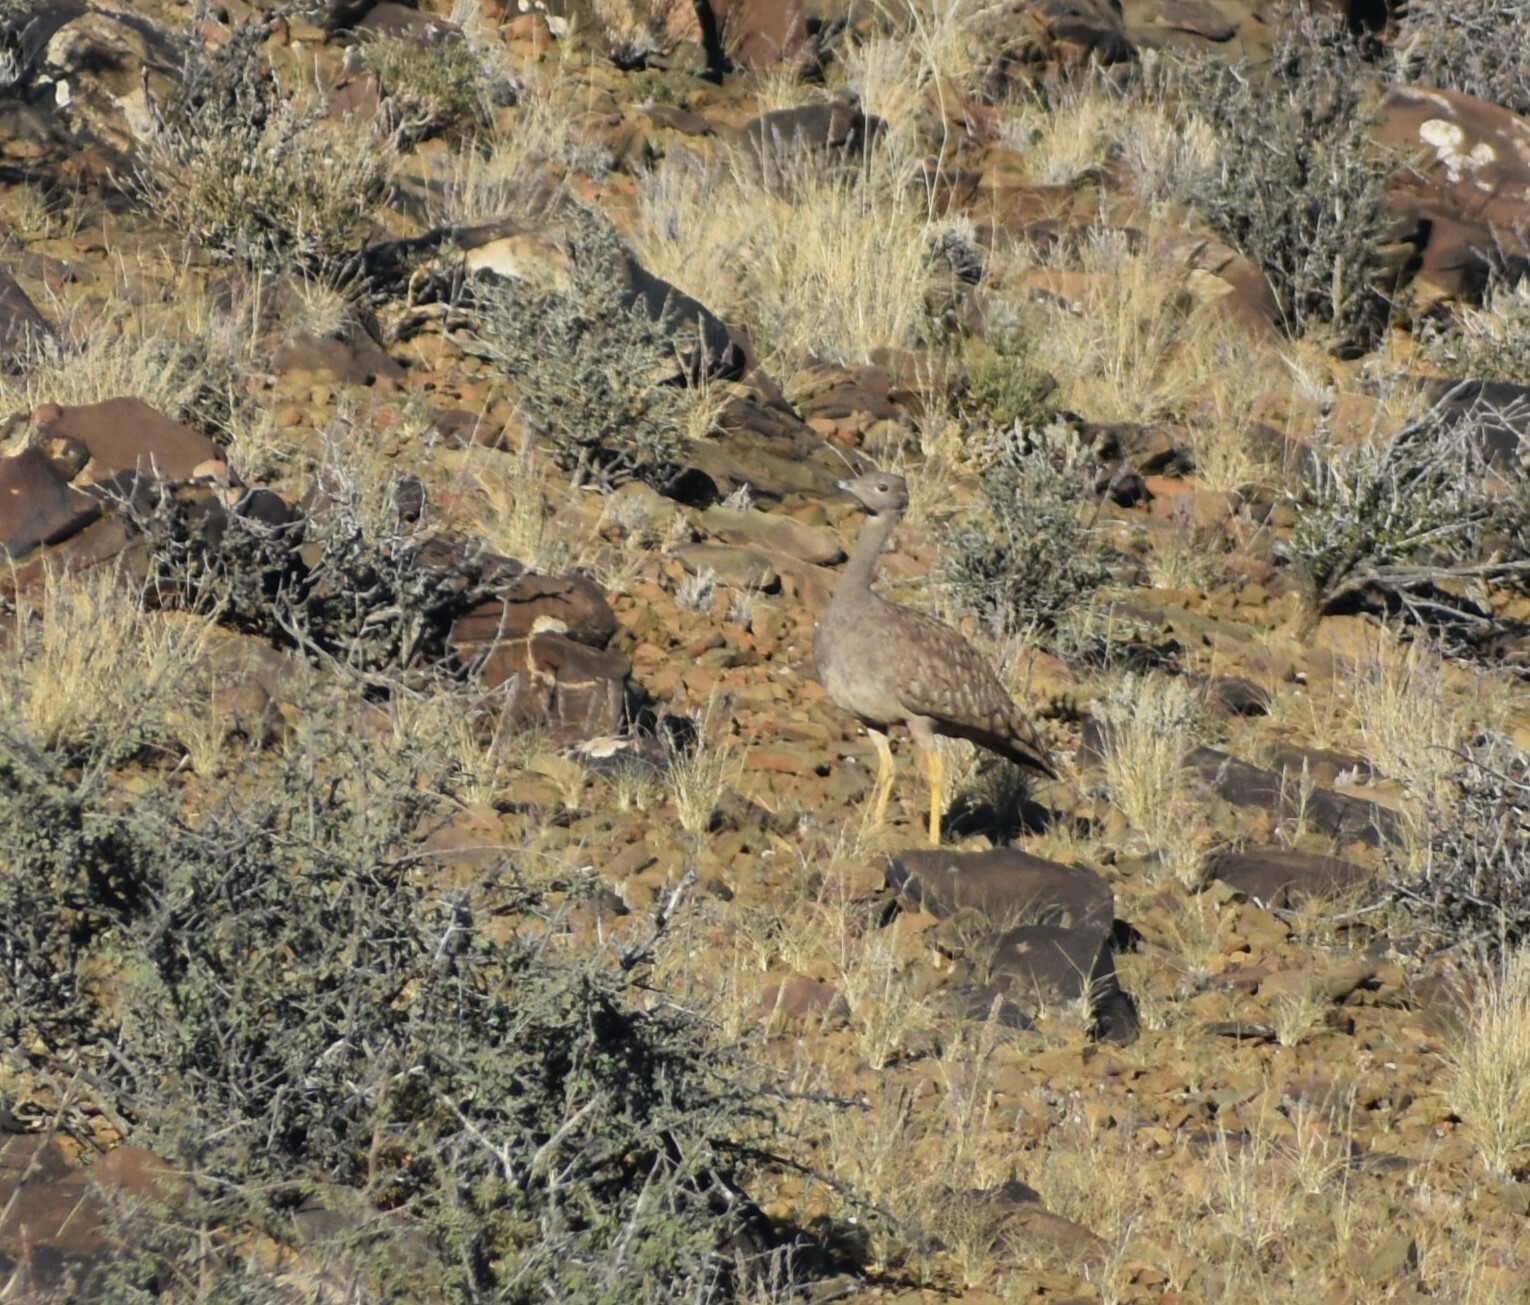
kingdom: Animalia
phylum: Chordata
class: Aves
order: Otidiformes
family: Otididae
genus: Eupodotis
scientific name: Eupodotis vigorsii
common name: Karoo korhaan
